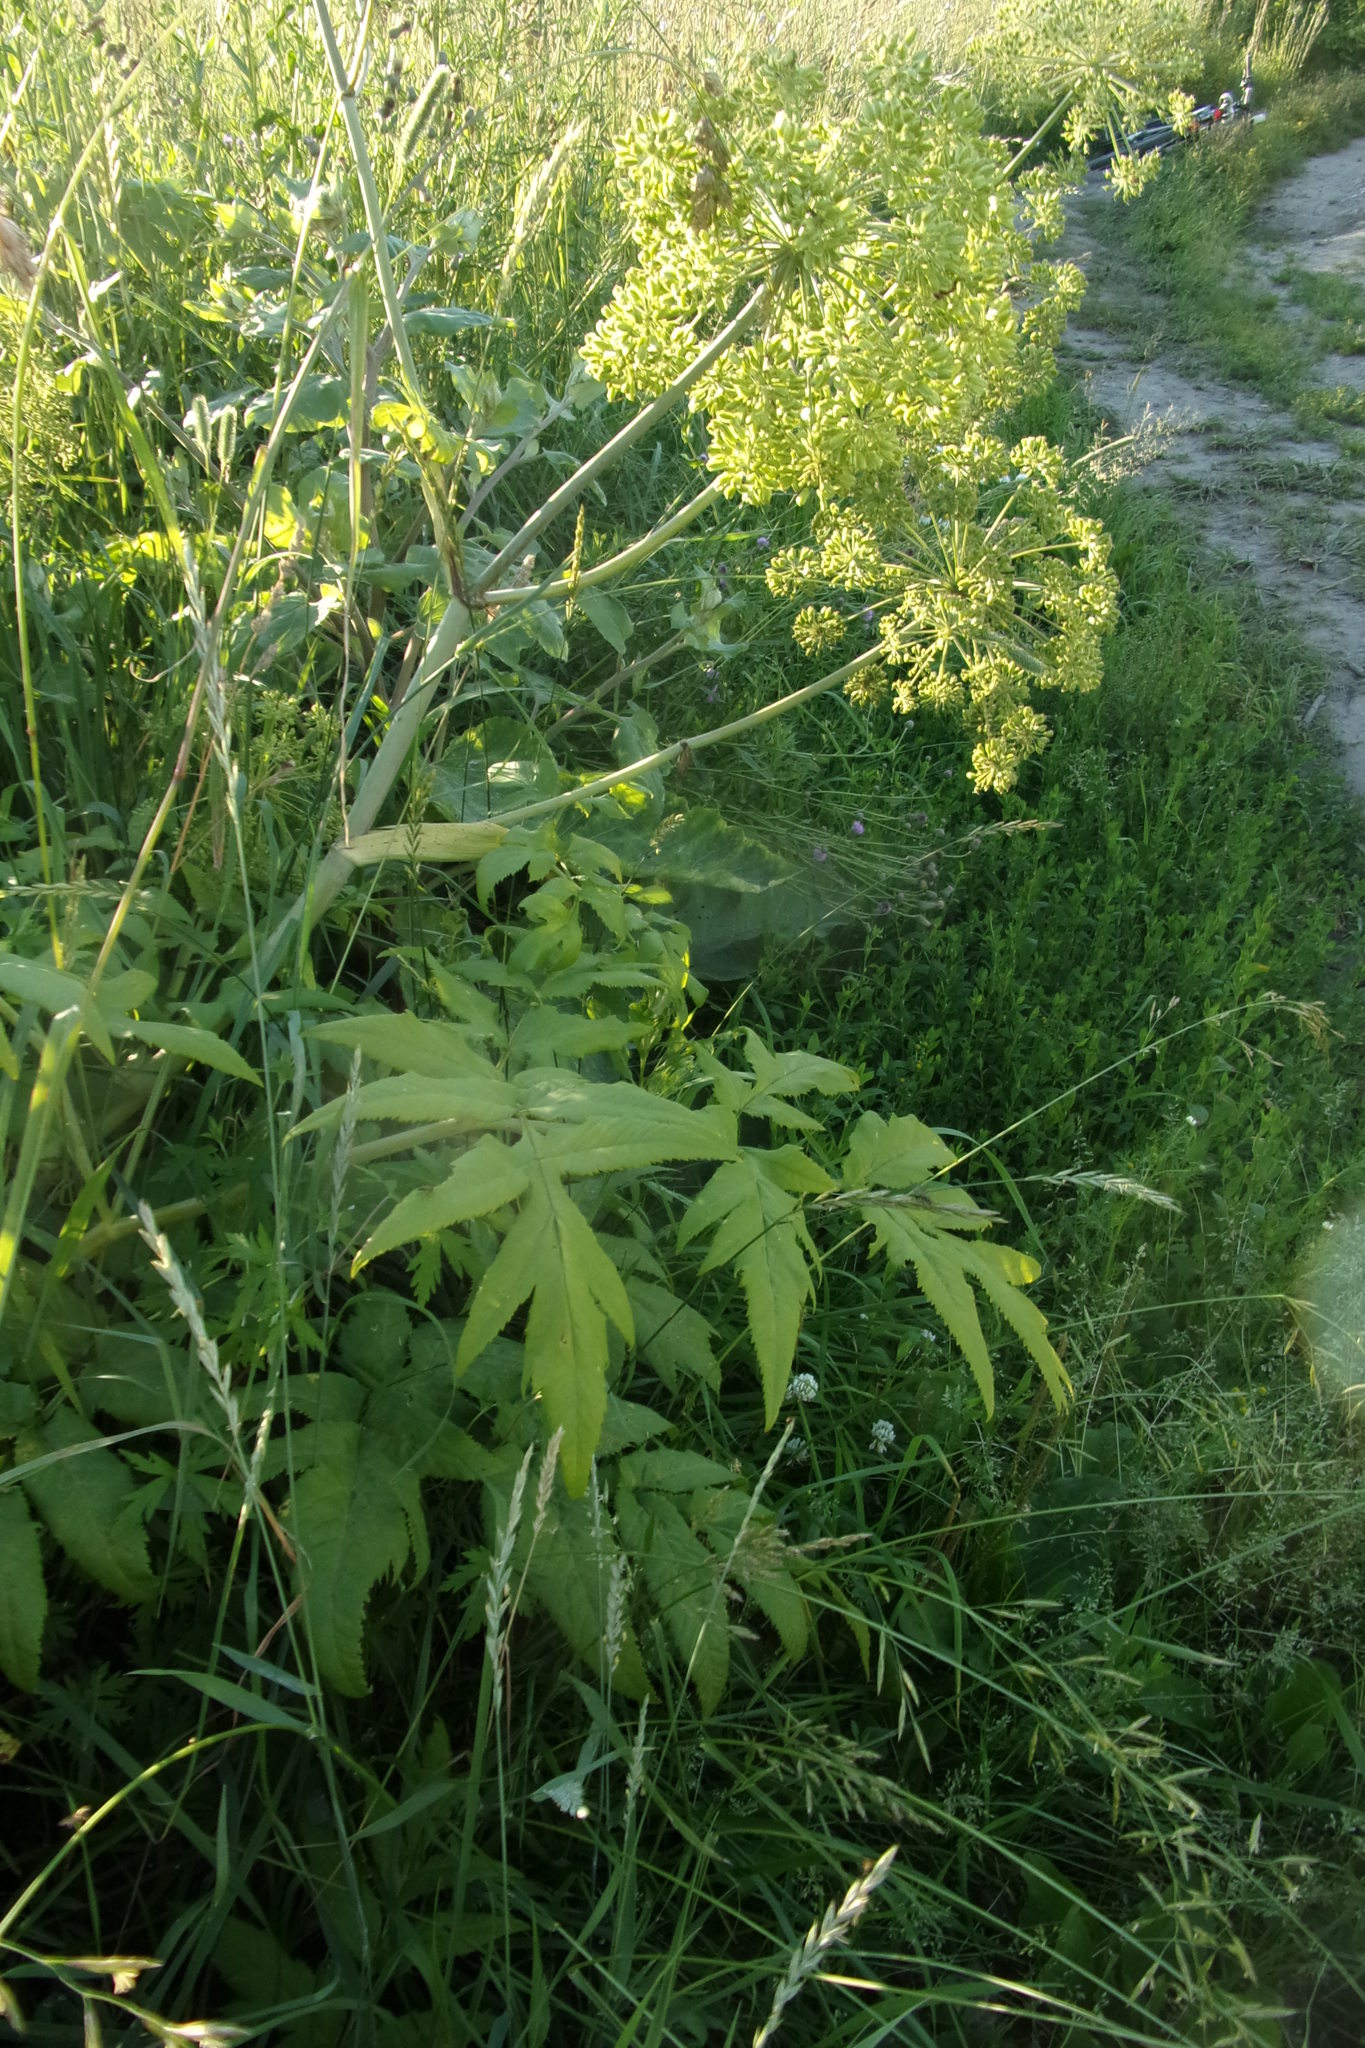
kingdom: Plantae
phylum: Tracheophyta
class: Magnoliopsida
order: Apiales
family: Apiaceae
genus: Angelica
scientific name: Angelica decurrens
